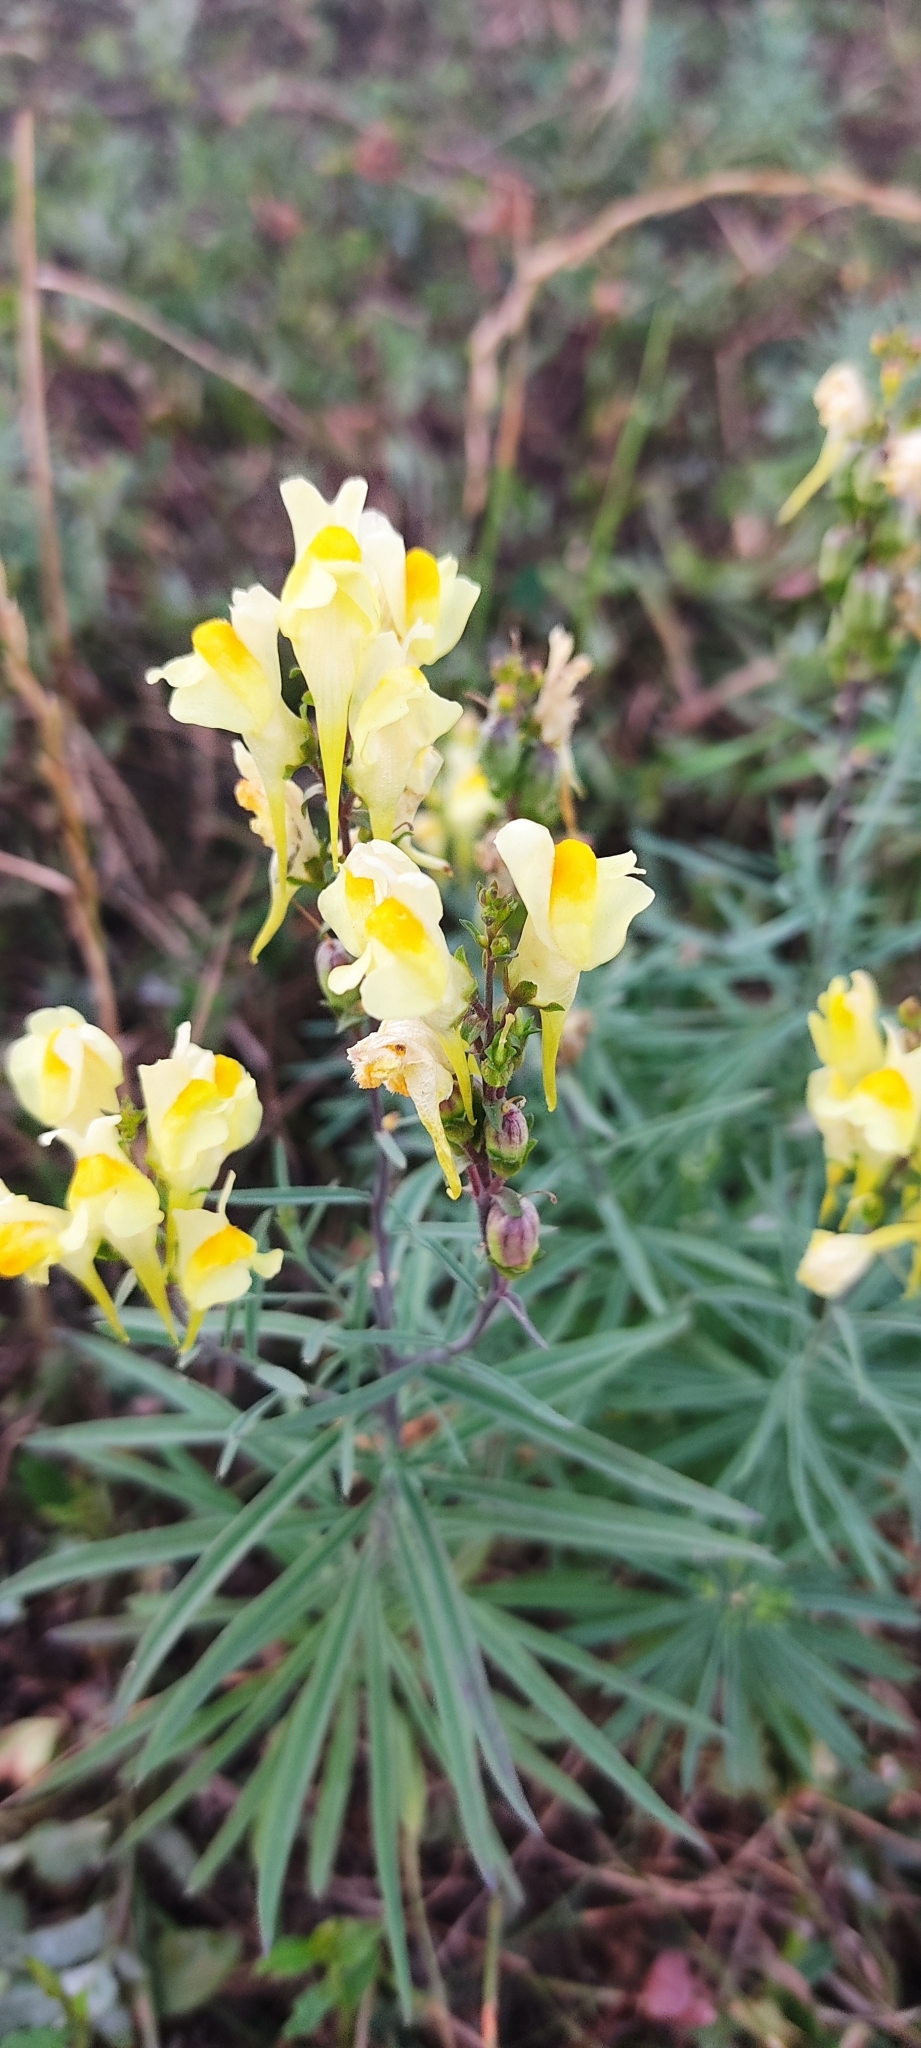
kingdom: Plantae
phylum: Tracheophyta
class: Magnoliopsida
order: Lamiales
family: Plantaginaceae
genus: Linaria
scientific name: Linaria vulgaris
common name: Butter and eggs
